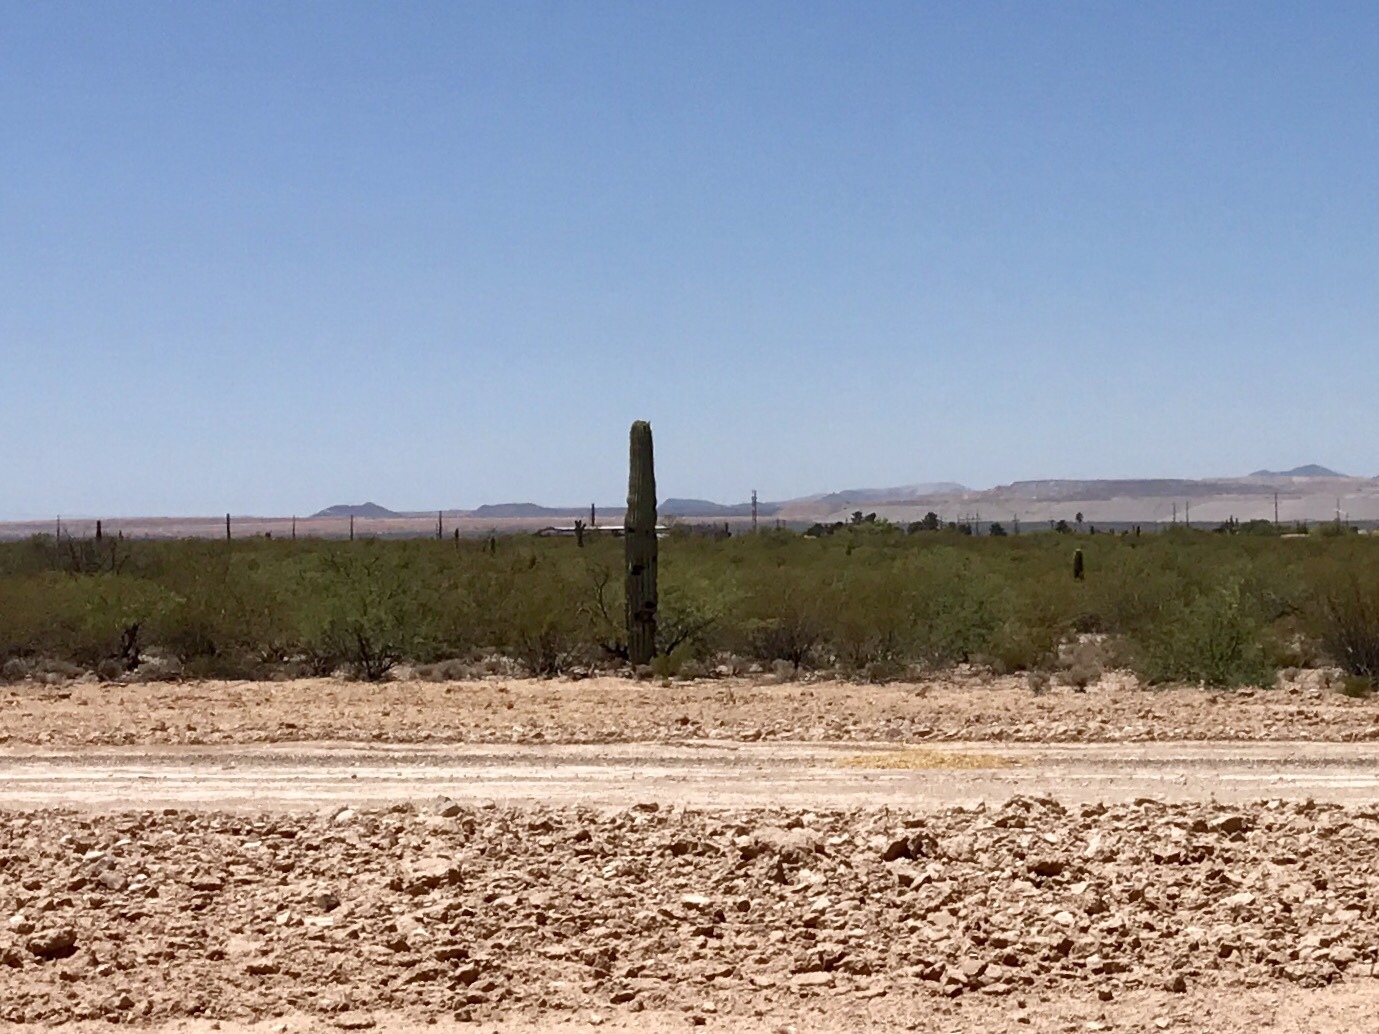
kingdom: Plantae
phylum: Tracheophyta
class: Magnoliopsida
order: Caryophyllales
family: Cactaceae
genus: Carnegiea
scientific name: Carnegiea gigantea
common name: Saguaro
